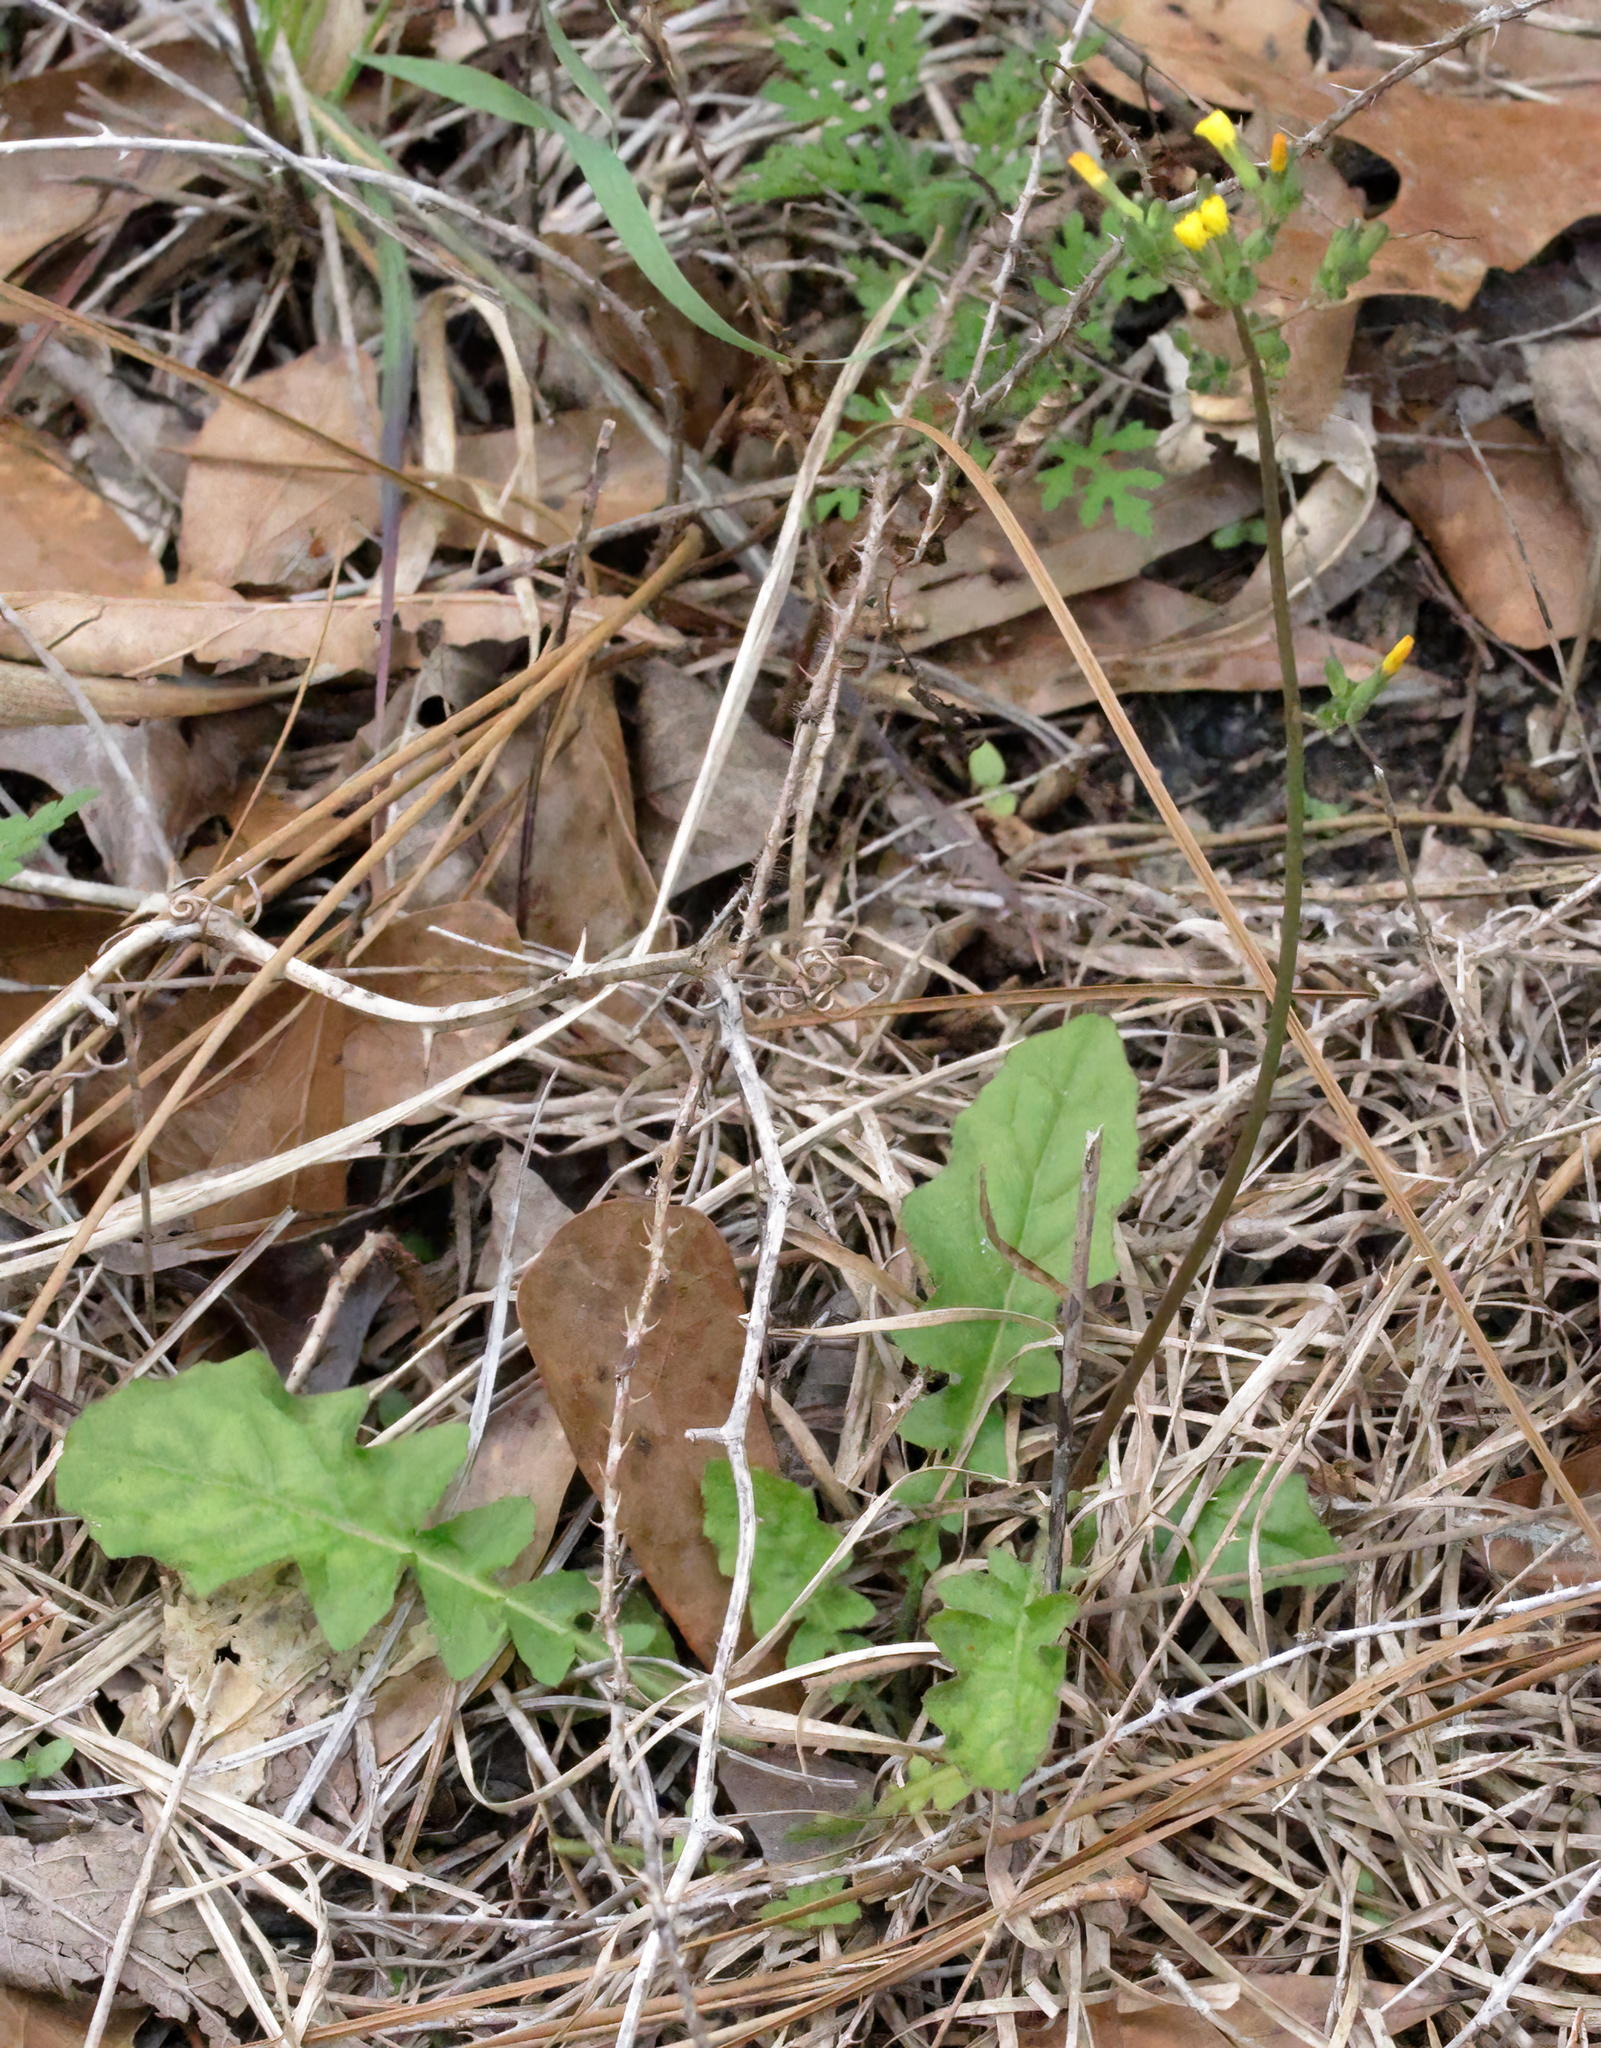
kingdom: Plantae
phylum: Tracheophyta
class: Magnoliopsida
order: Asterales
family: Asteraceae
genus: Youngia
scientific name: Youngia japonica
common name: Oriental false hawksbeard
